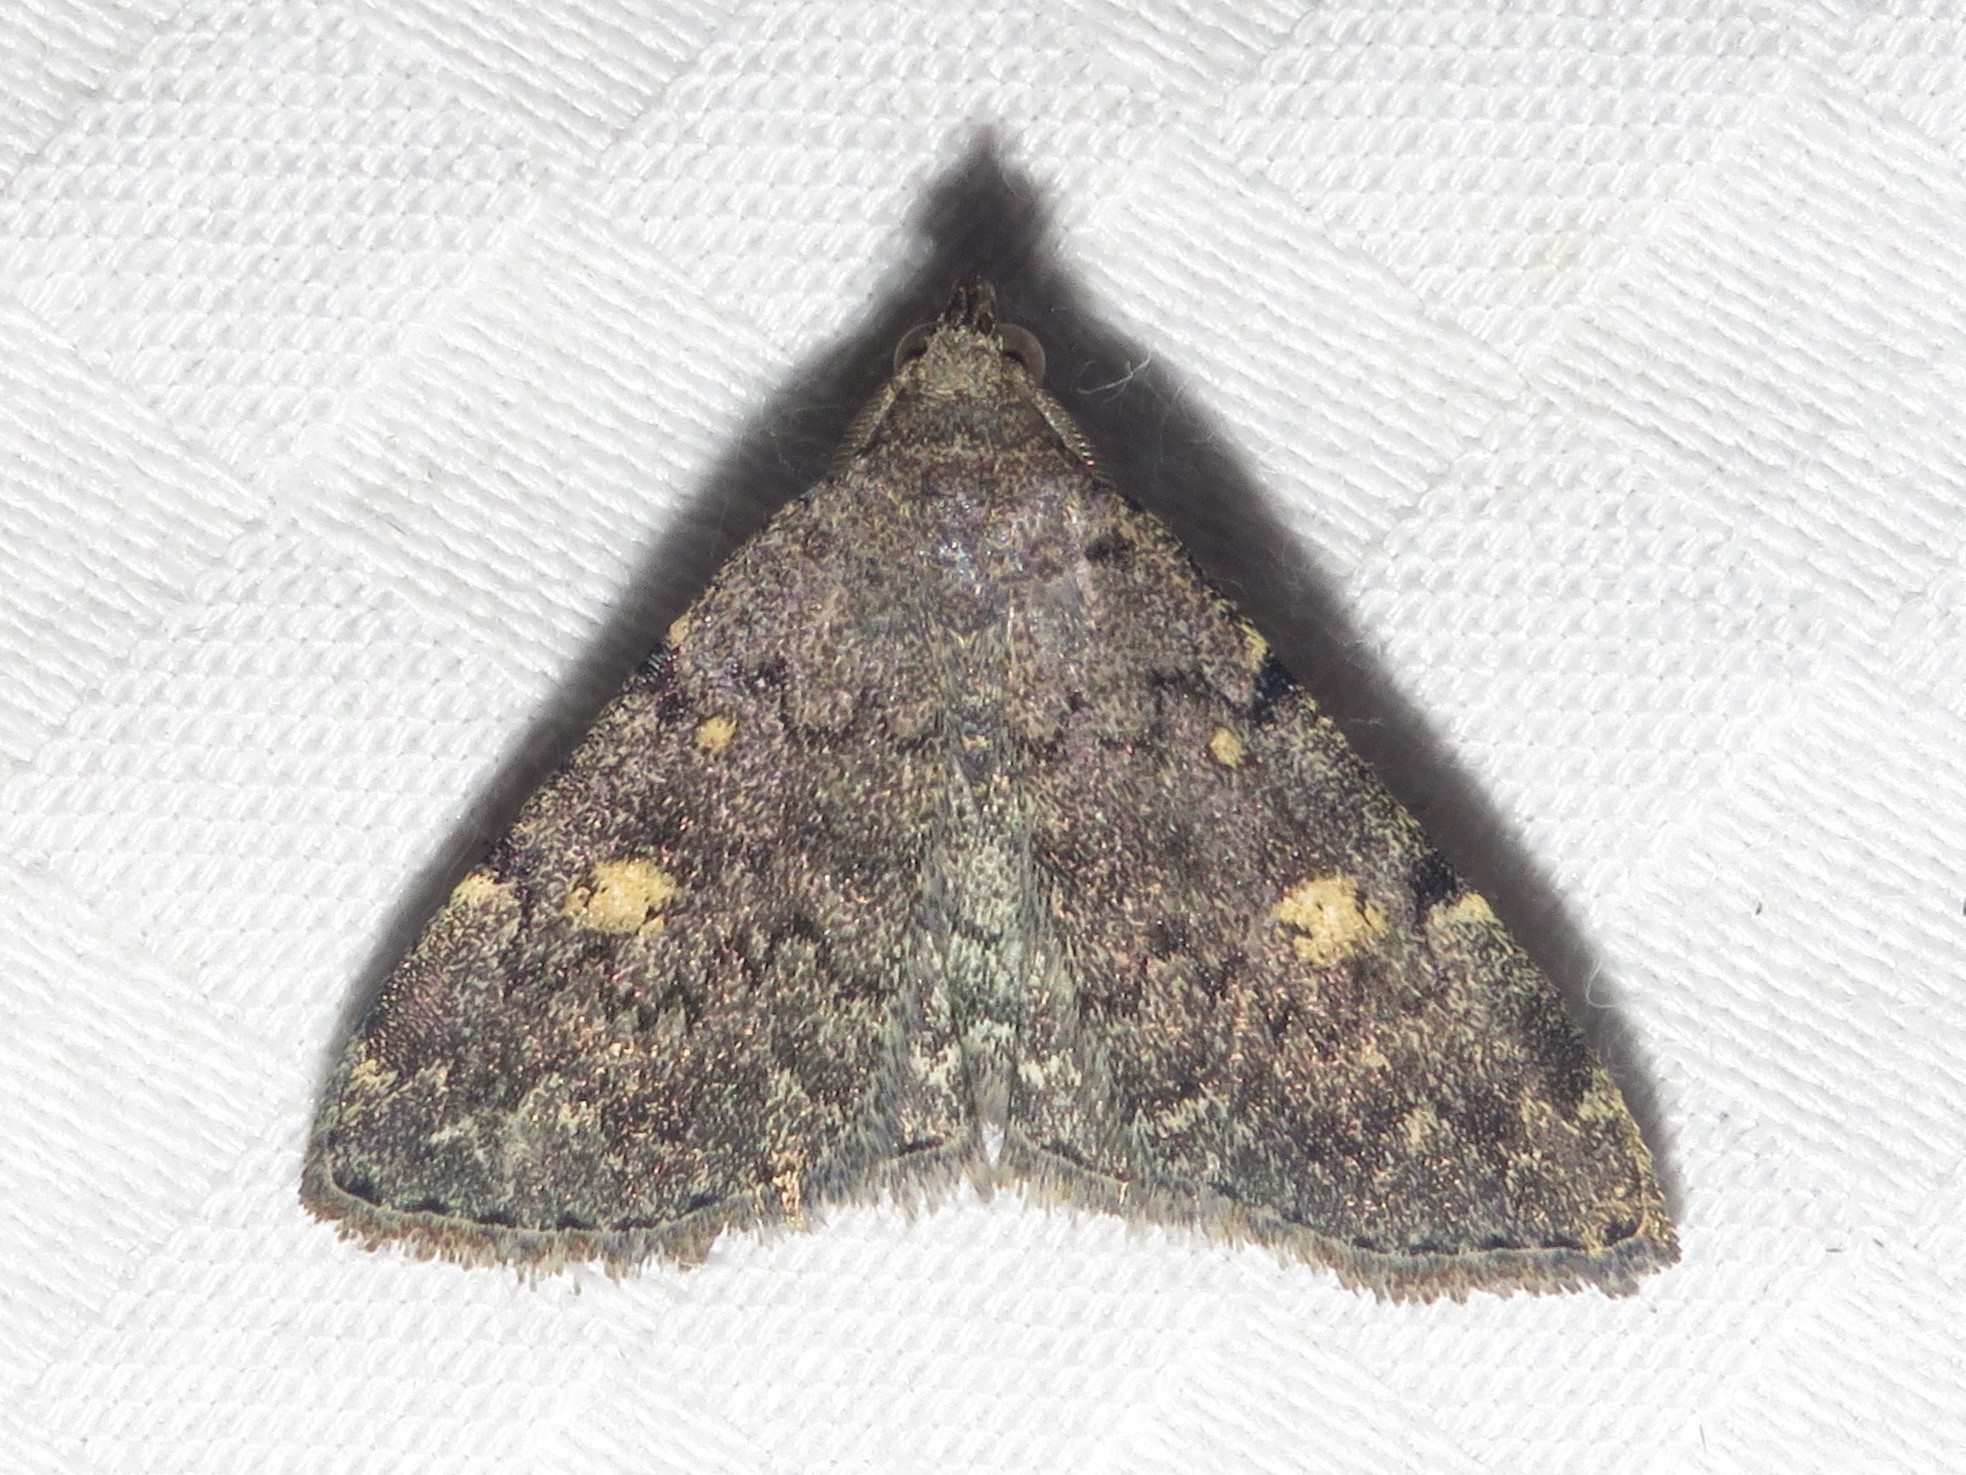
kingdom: Animalia
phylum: Arthropoda
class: Insecta
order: Lepidoptera
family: Erebidae
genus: Idia
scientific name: Idia aemula
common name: Common idia moth
